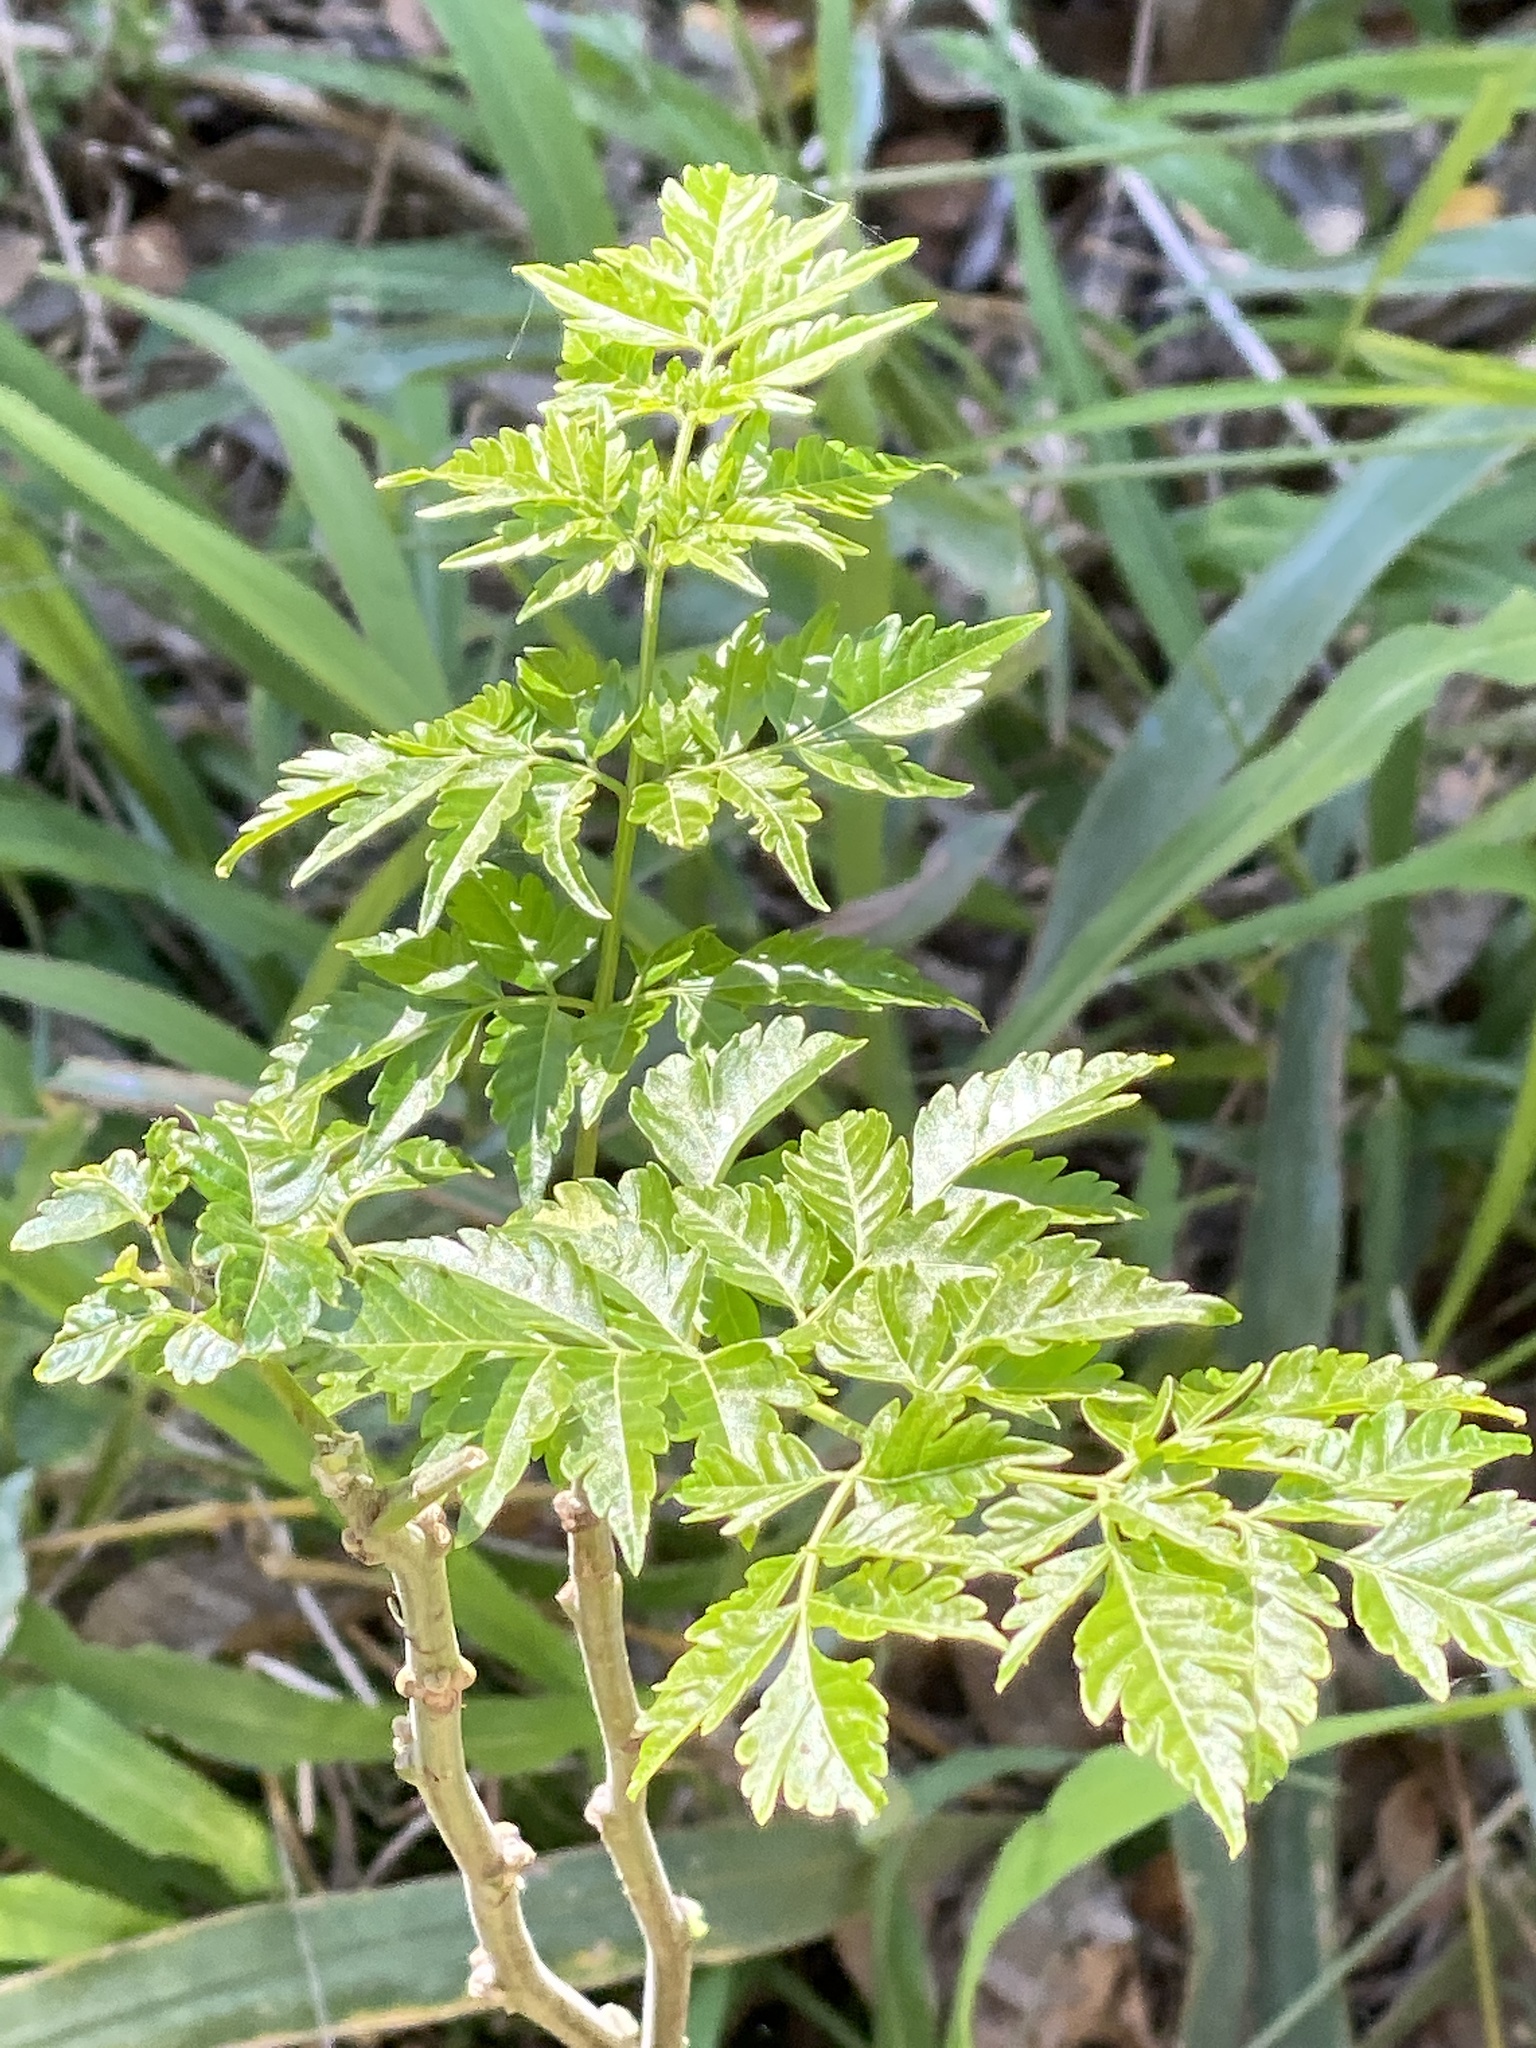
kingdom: Plantae
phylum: Tracheophyta
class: Magnoliopsida
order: Sapindales
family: Meliaceae
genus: Melia
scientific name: Melia azedarach
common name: Chinaberrytree
